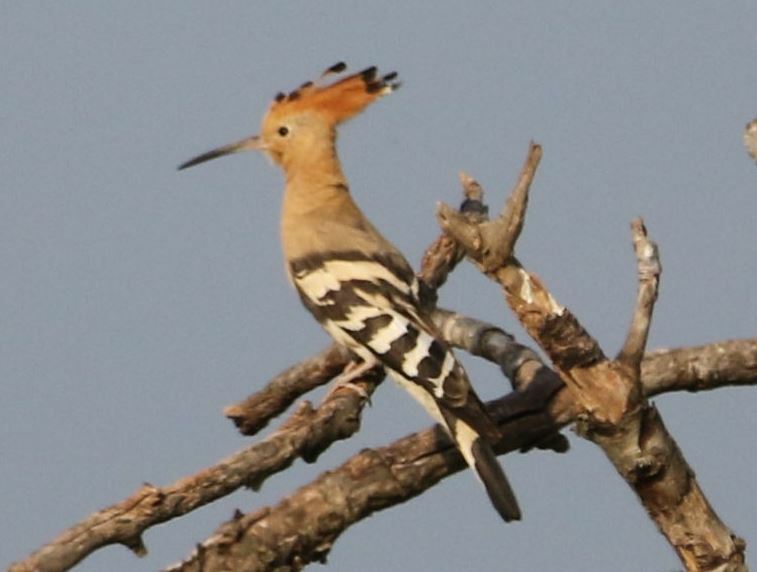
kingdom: Animalia
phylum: Chordata
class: Aves
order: Bucerotiformes
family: Upupidae
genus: Upupa
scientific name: Upupa epops
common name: Eurasian hoopoe
